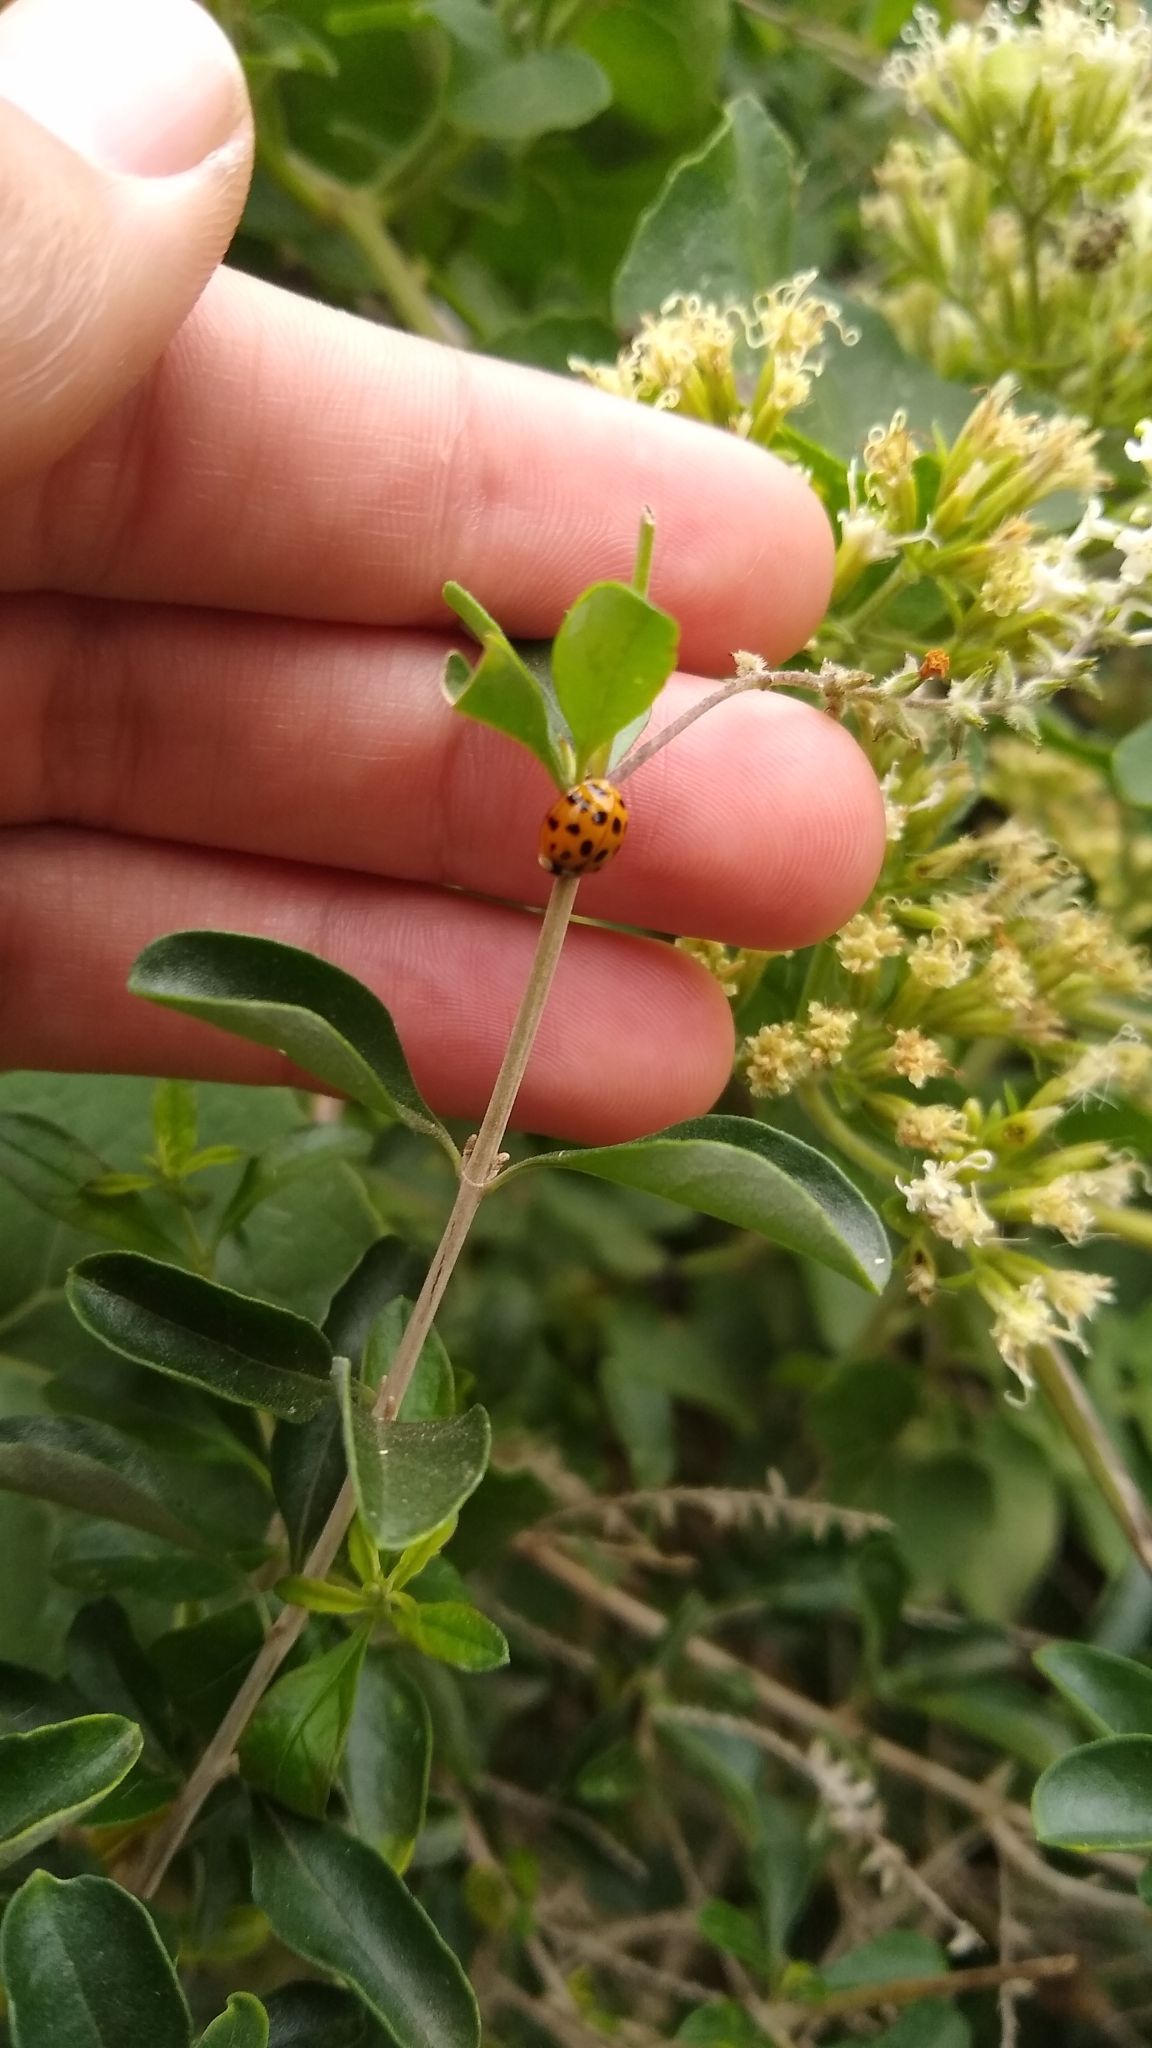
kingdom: Animalia
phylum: Arthropoda
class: Insecta
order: Coleoptera
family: Coccinellidae
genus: Harmonia
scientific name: Harmonia axyridis
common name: Harlequin ladybird
